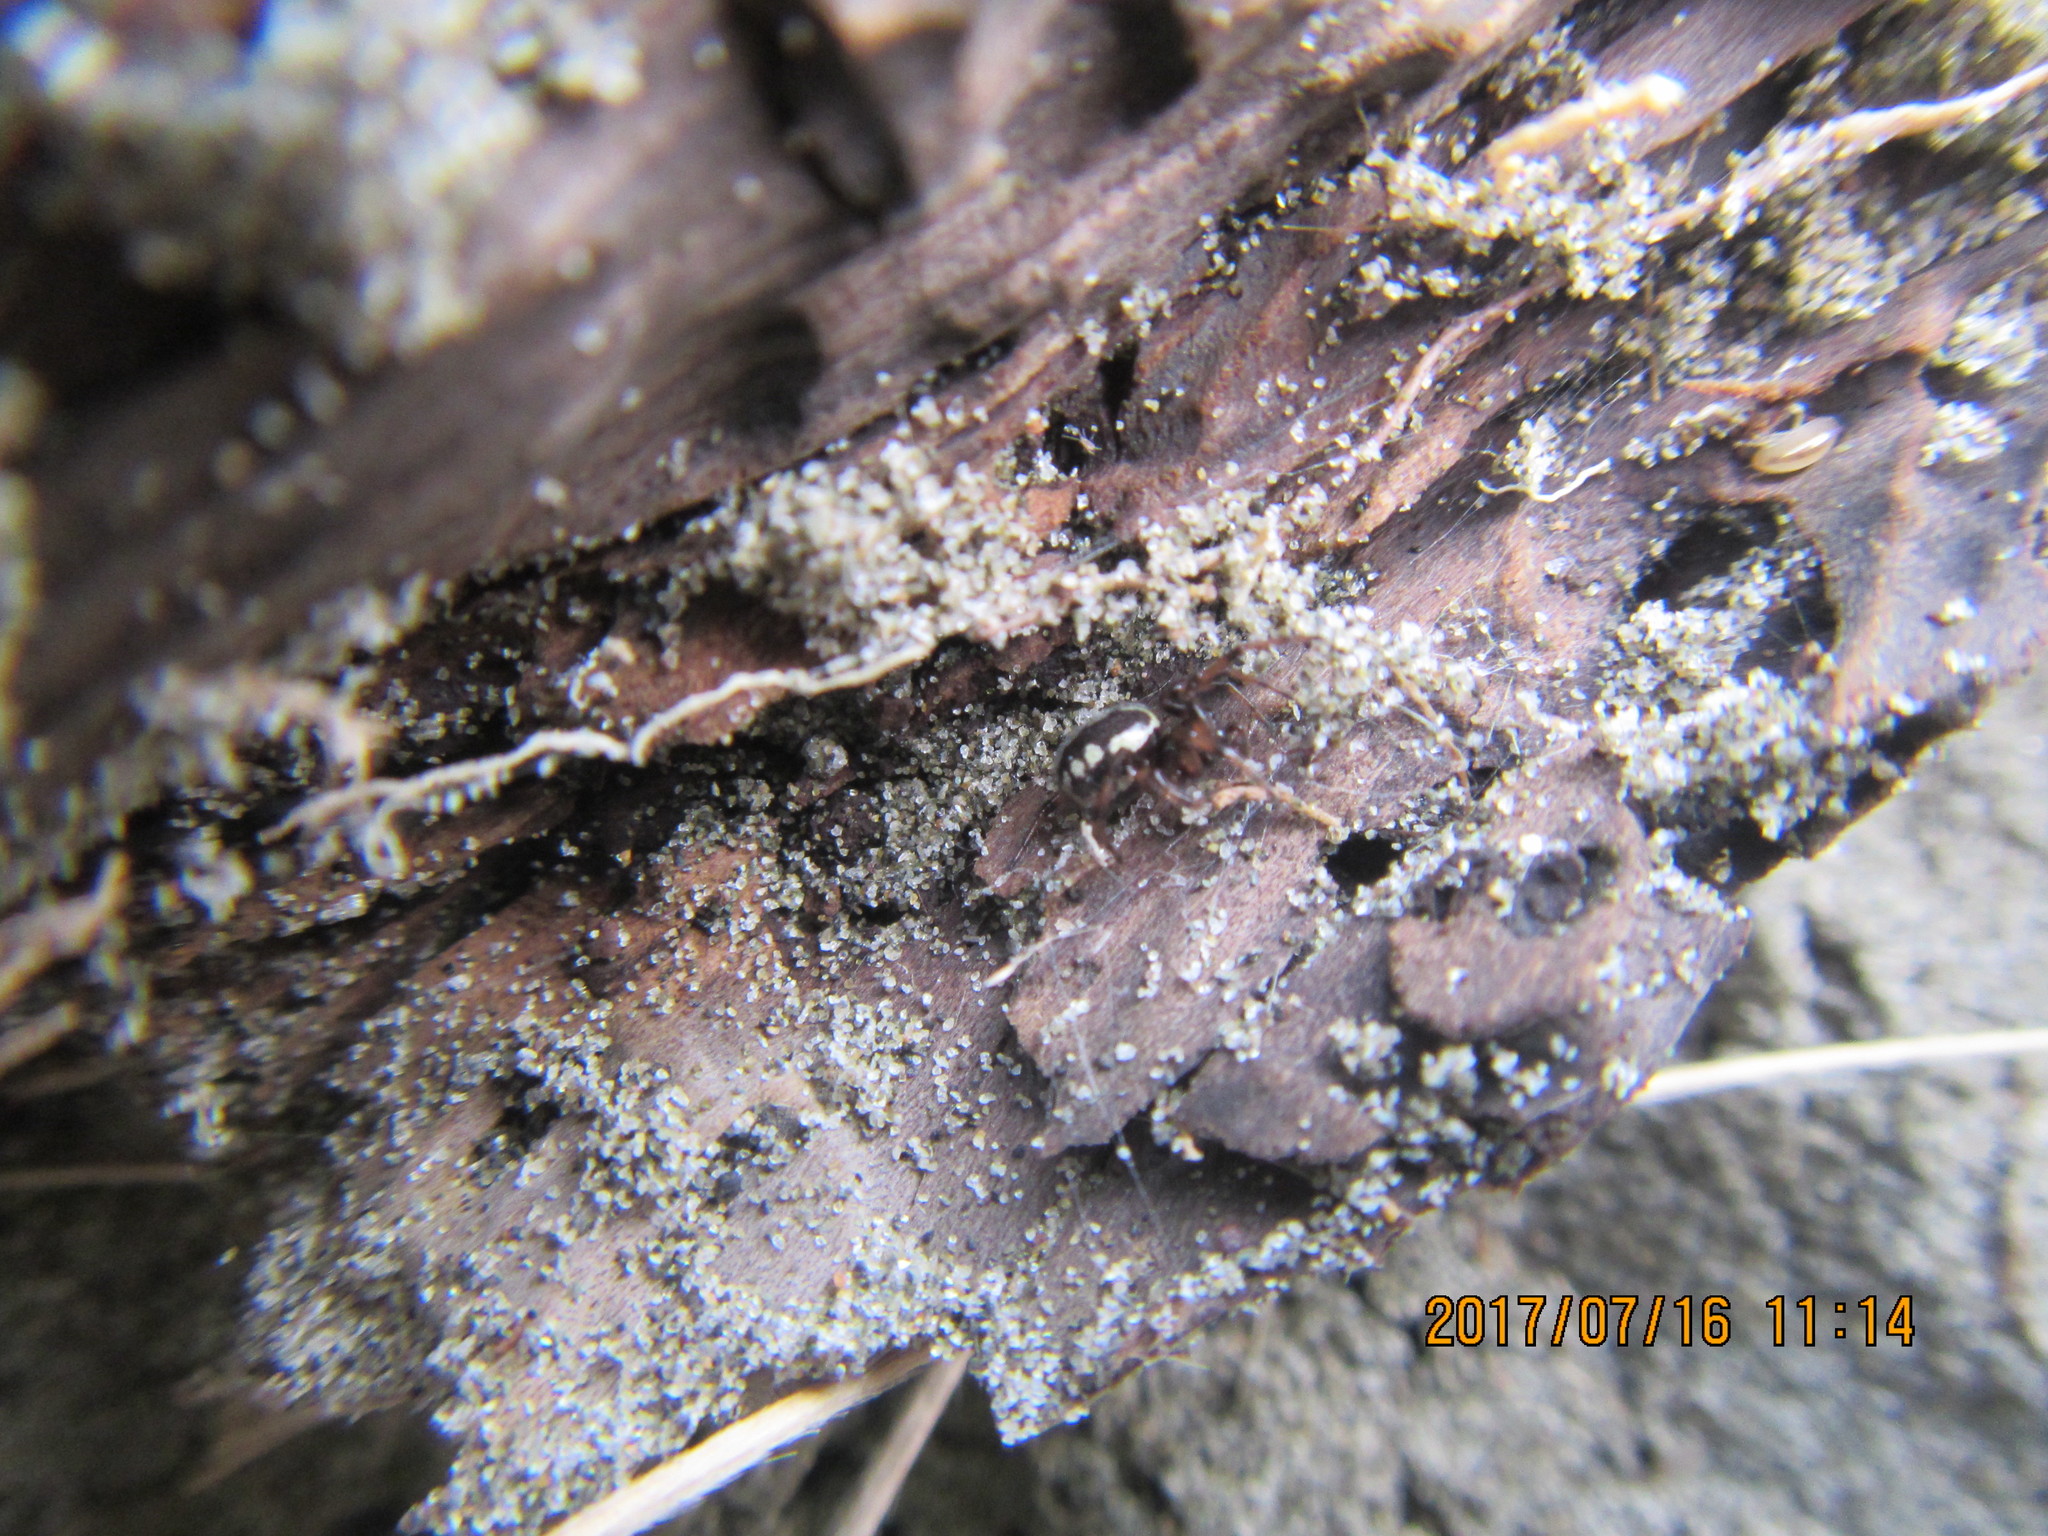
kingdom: Animalia
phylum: Arthropoda
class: Arachnida
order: Araneae
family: Theridiidae
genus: Steatoda
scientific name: Steatoda lepida
